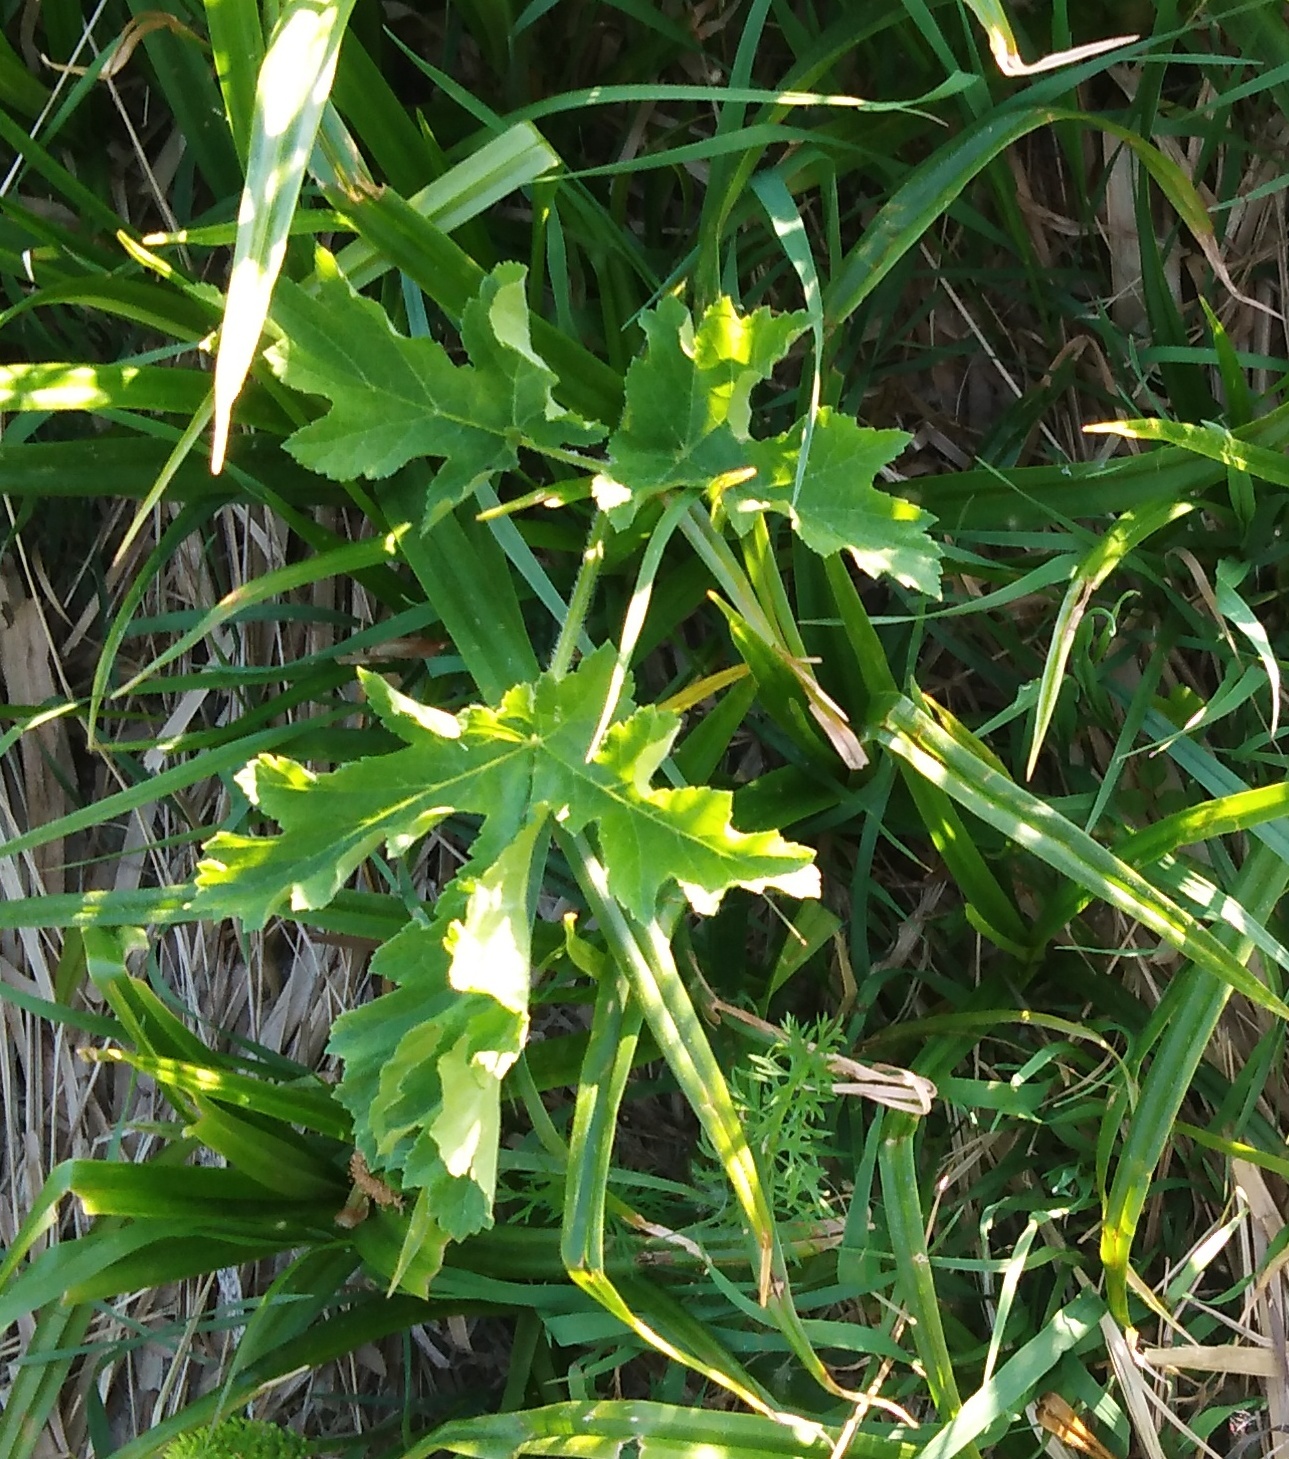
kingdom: Plantae
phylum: Tracheophyta
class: Magnoliopsida
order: Apiales
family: Apiaceae
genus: Heracleum
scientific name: Heracleum sphondylium
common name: Hogweed
